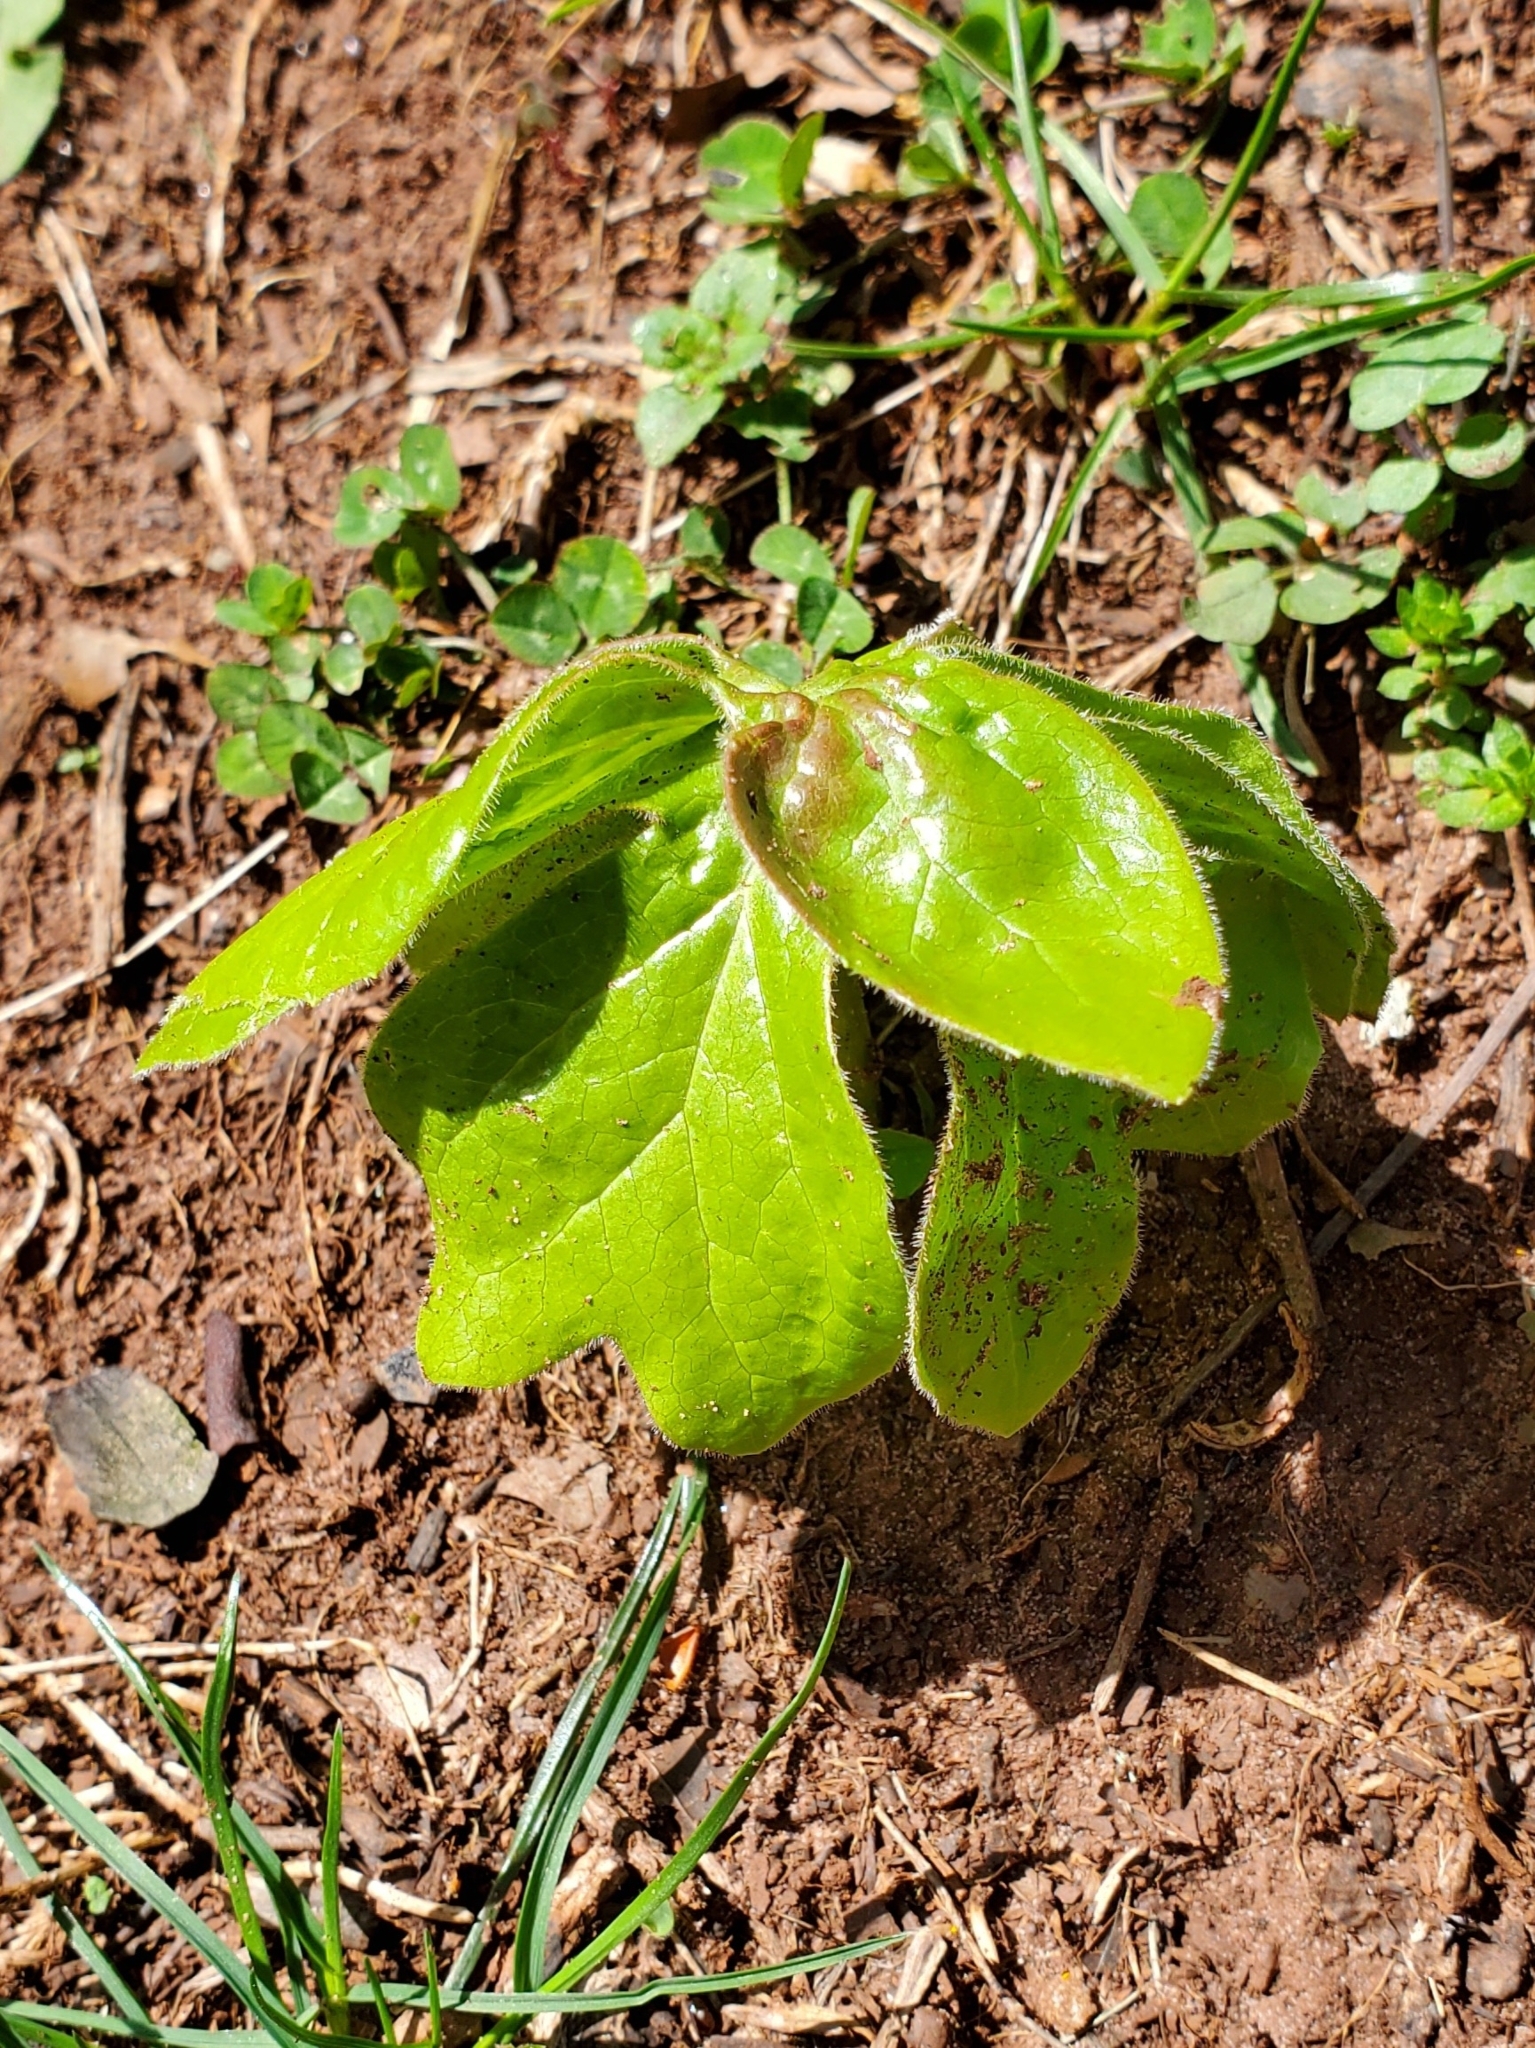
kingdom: Plantae
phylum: Tracheophyta
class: Magnoliopsida
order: Ranunculales
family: Berberidaceae
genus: Podophyllum
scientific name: Podophyllum peltatum
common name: Wild mandrake
